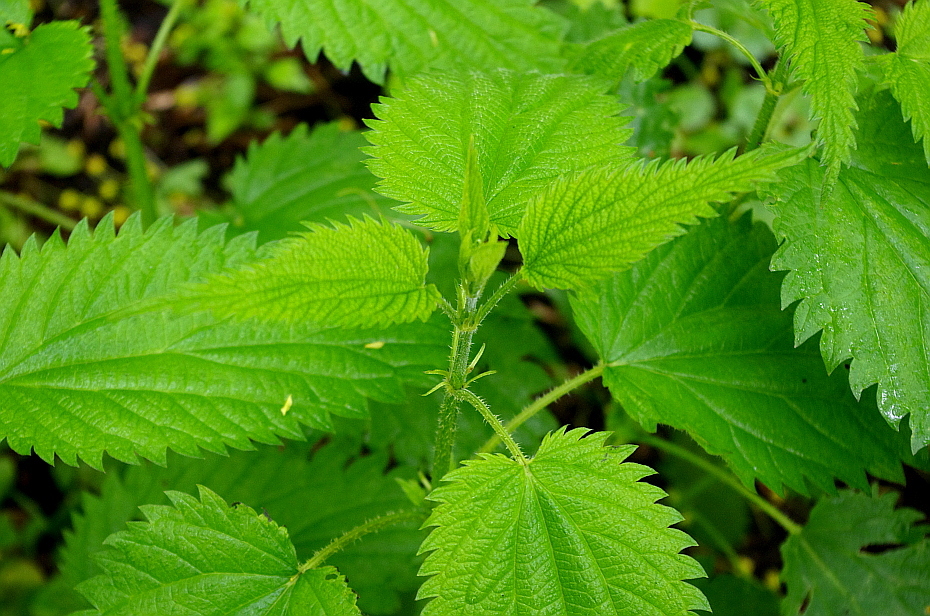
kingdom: Plantae
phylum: Tracheophyta
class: Magnoliopsida
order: Rosales
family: Urticaceae
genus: Urtica
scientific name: Urtica dioica
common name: Common nettle
